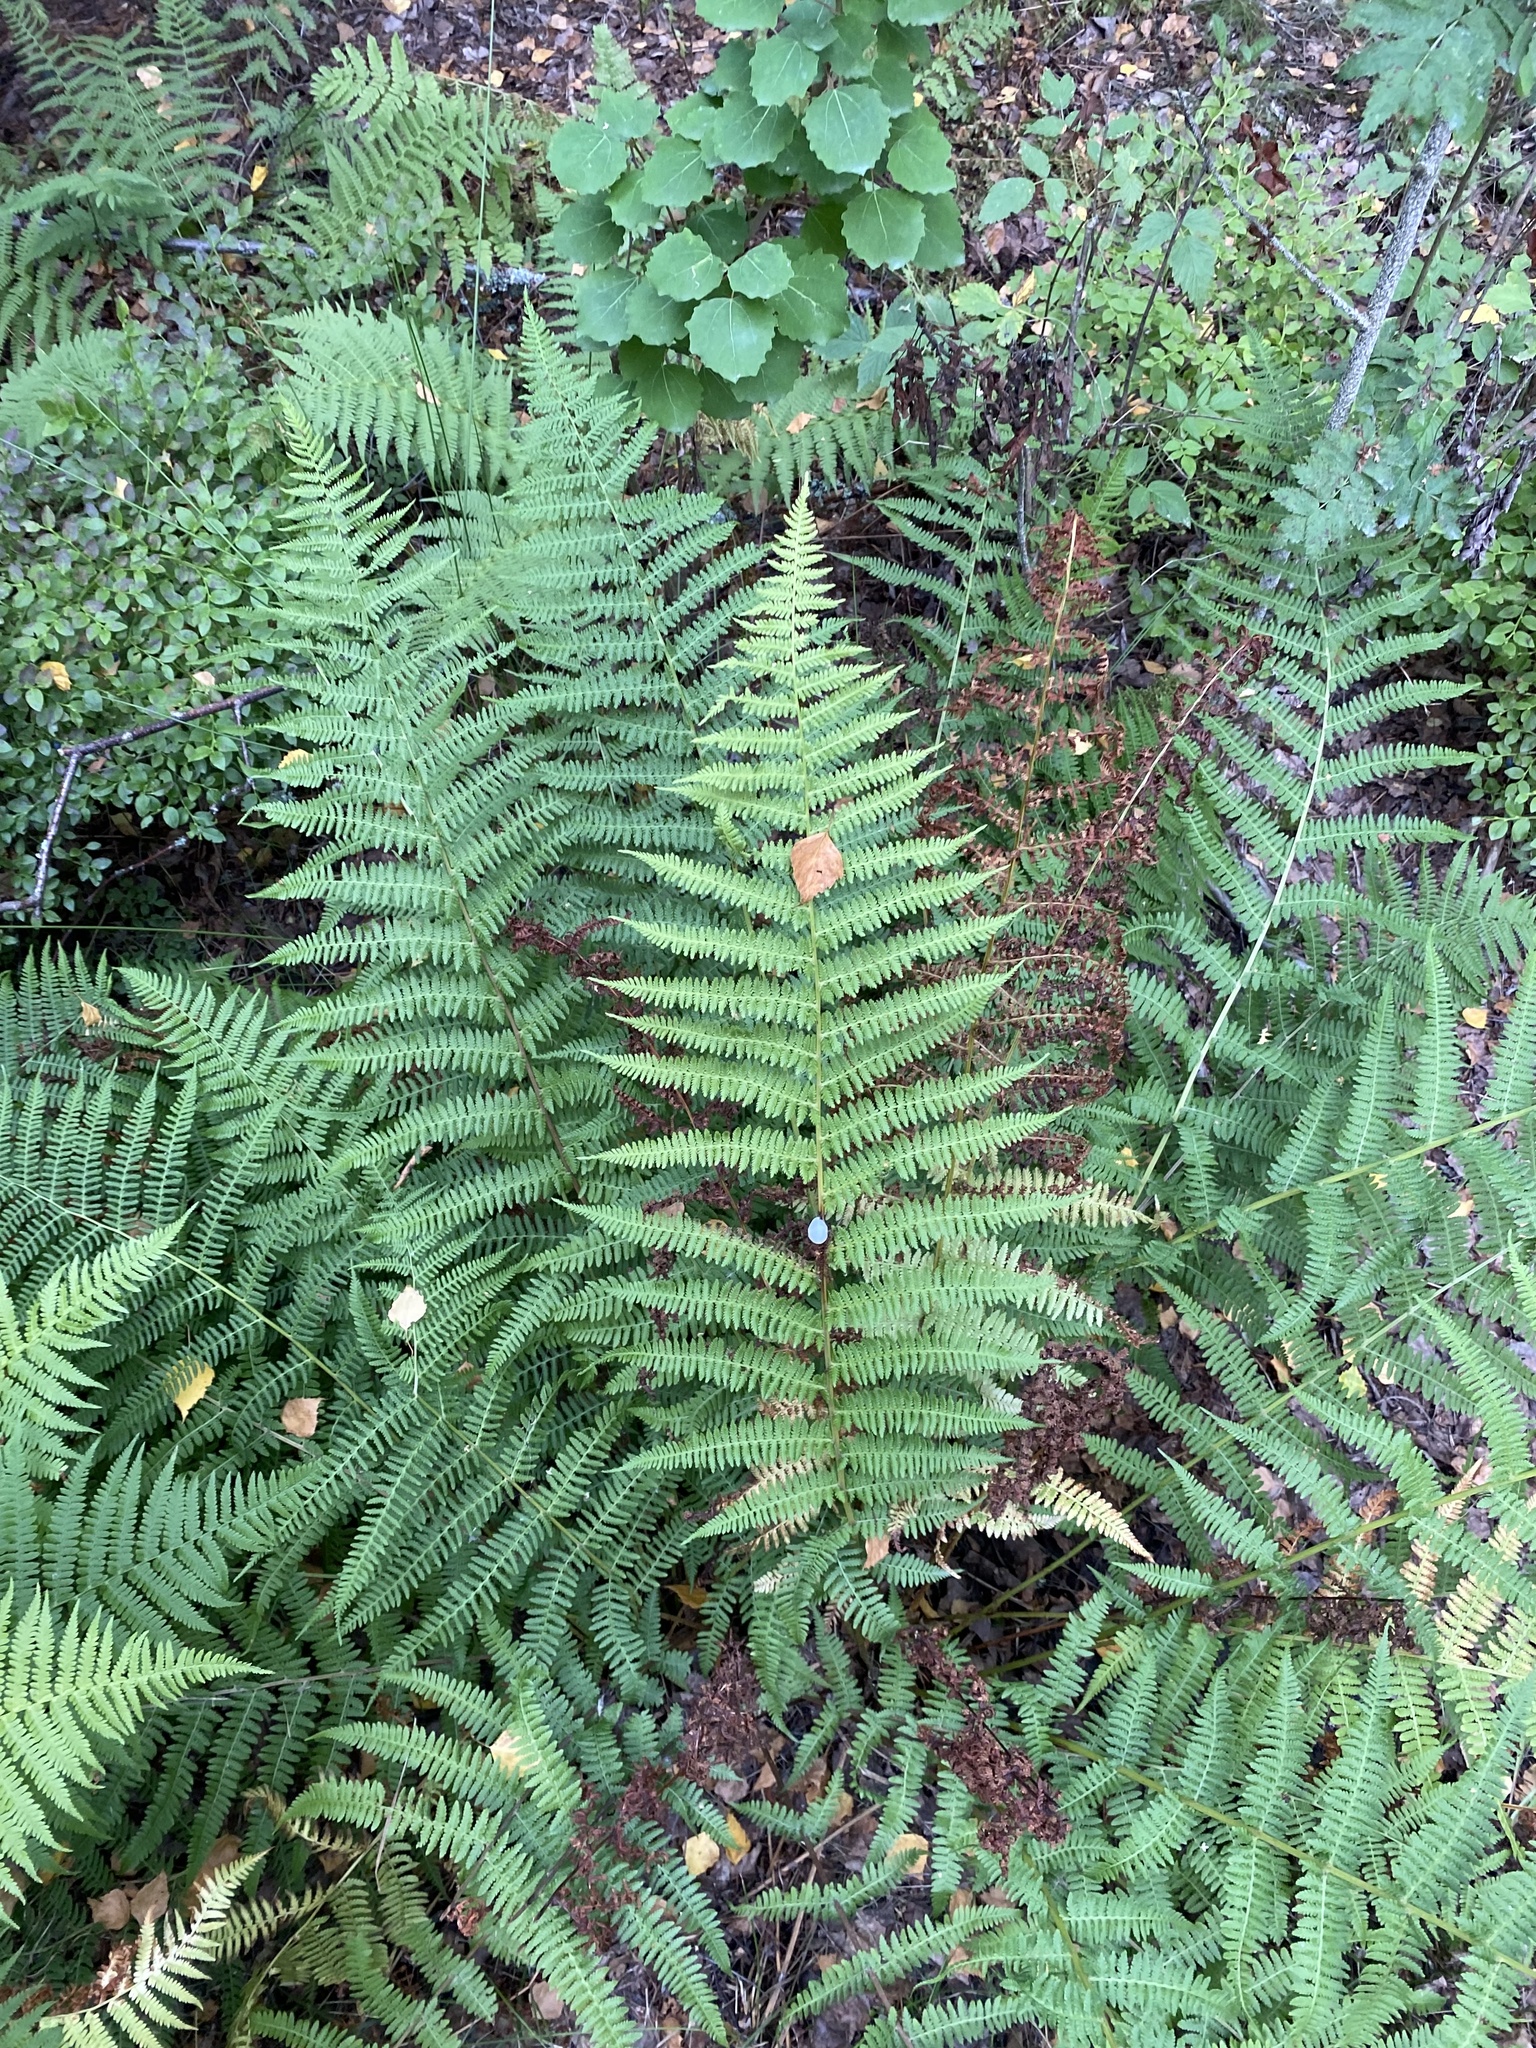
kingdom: Plantae
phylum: Tracheophyta
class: Polypodiopsida
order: Polypodiales
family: Athyriaceae
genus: Athyrium
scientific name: Athyrium filix-femina
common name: Lady fern
